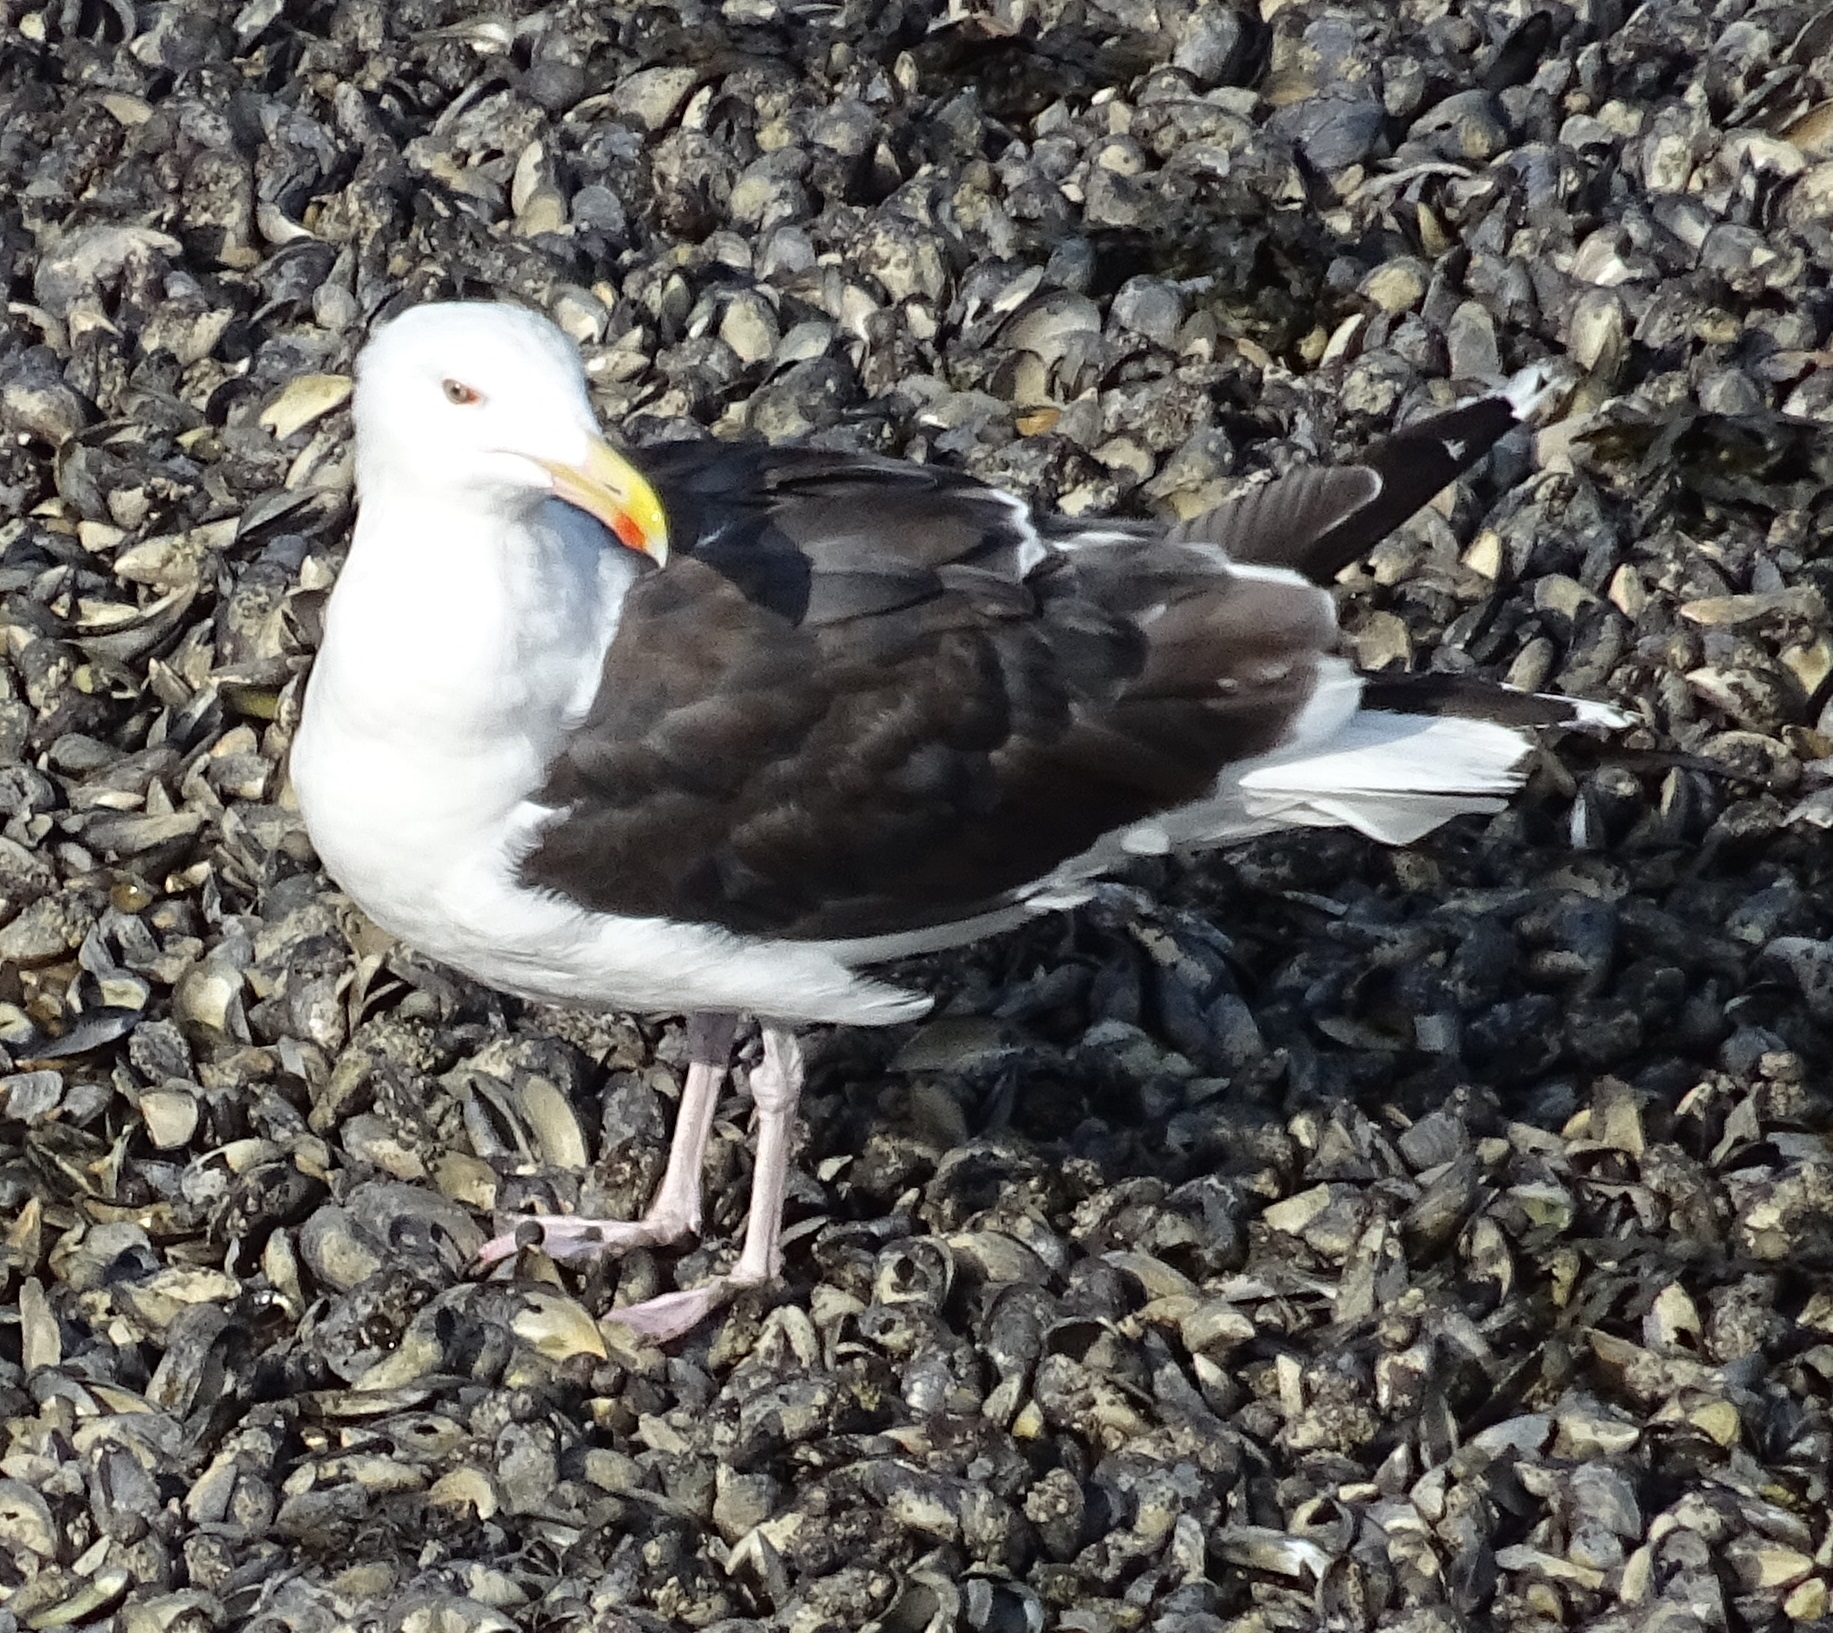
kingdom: Animalia
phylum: Chordata
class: Aves
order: Charadriiformes
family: Laridae
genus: Larus
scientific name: Larus marinus
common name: Great black-backed gull
